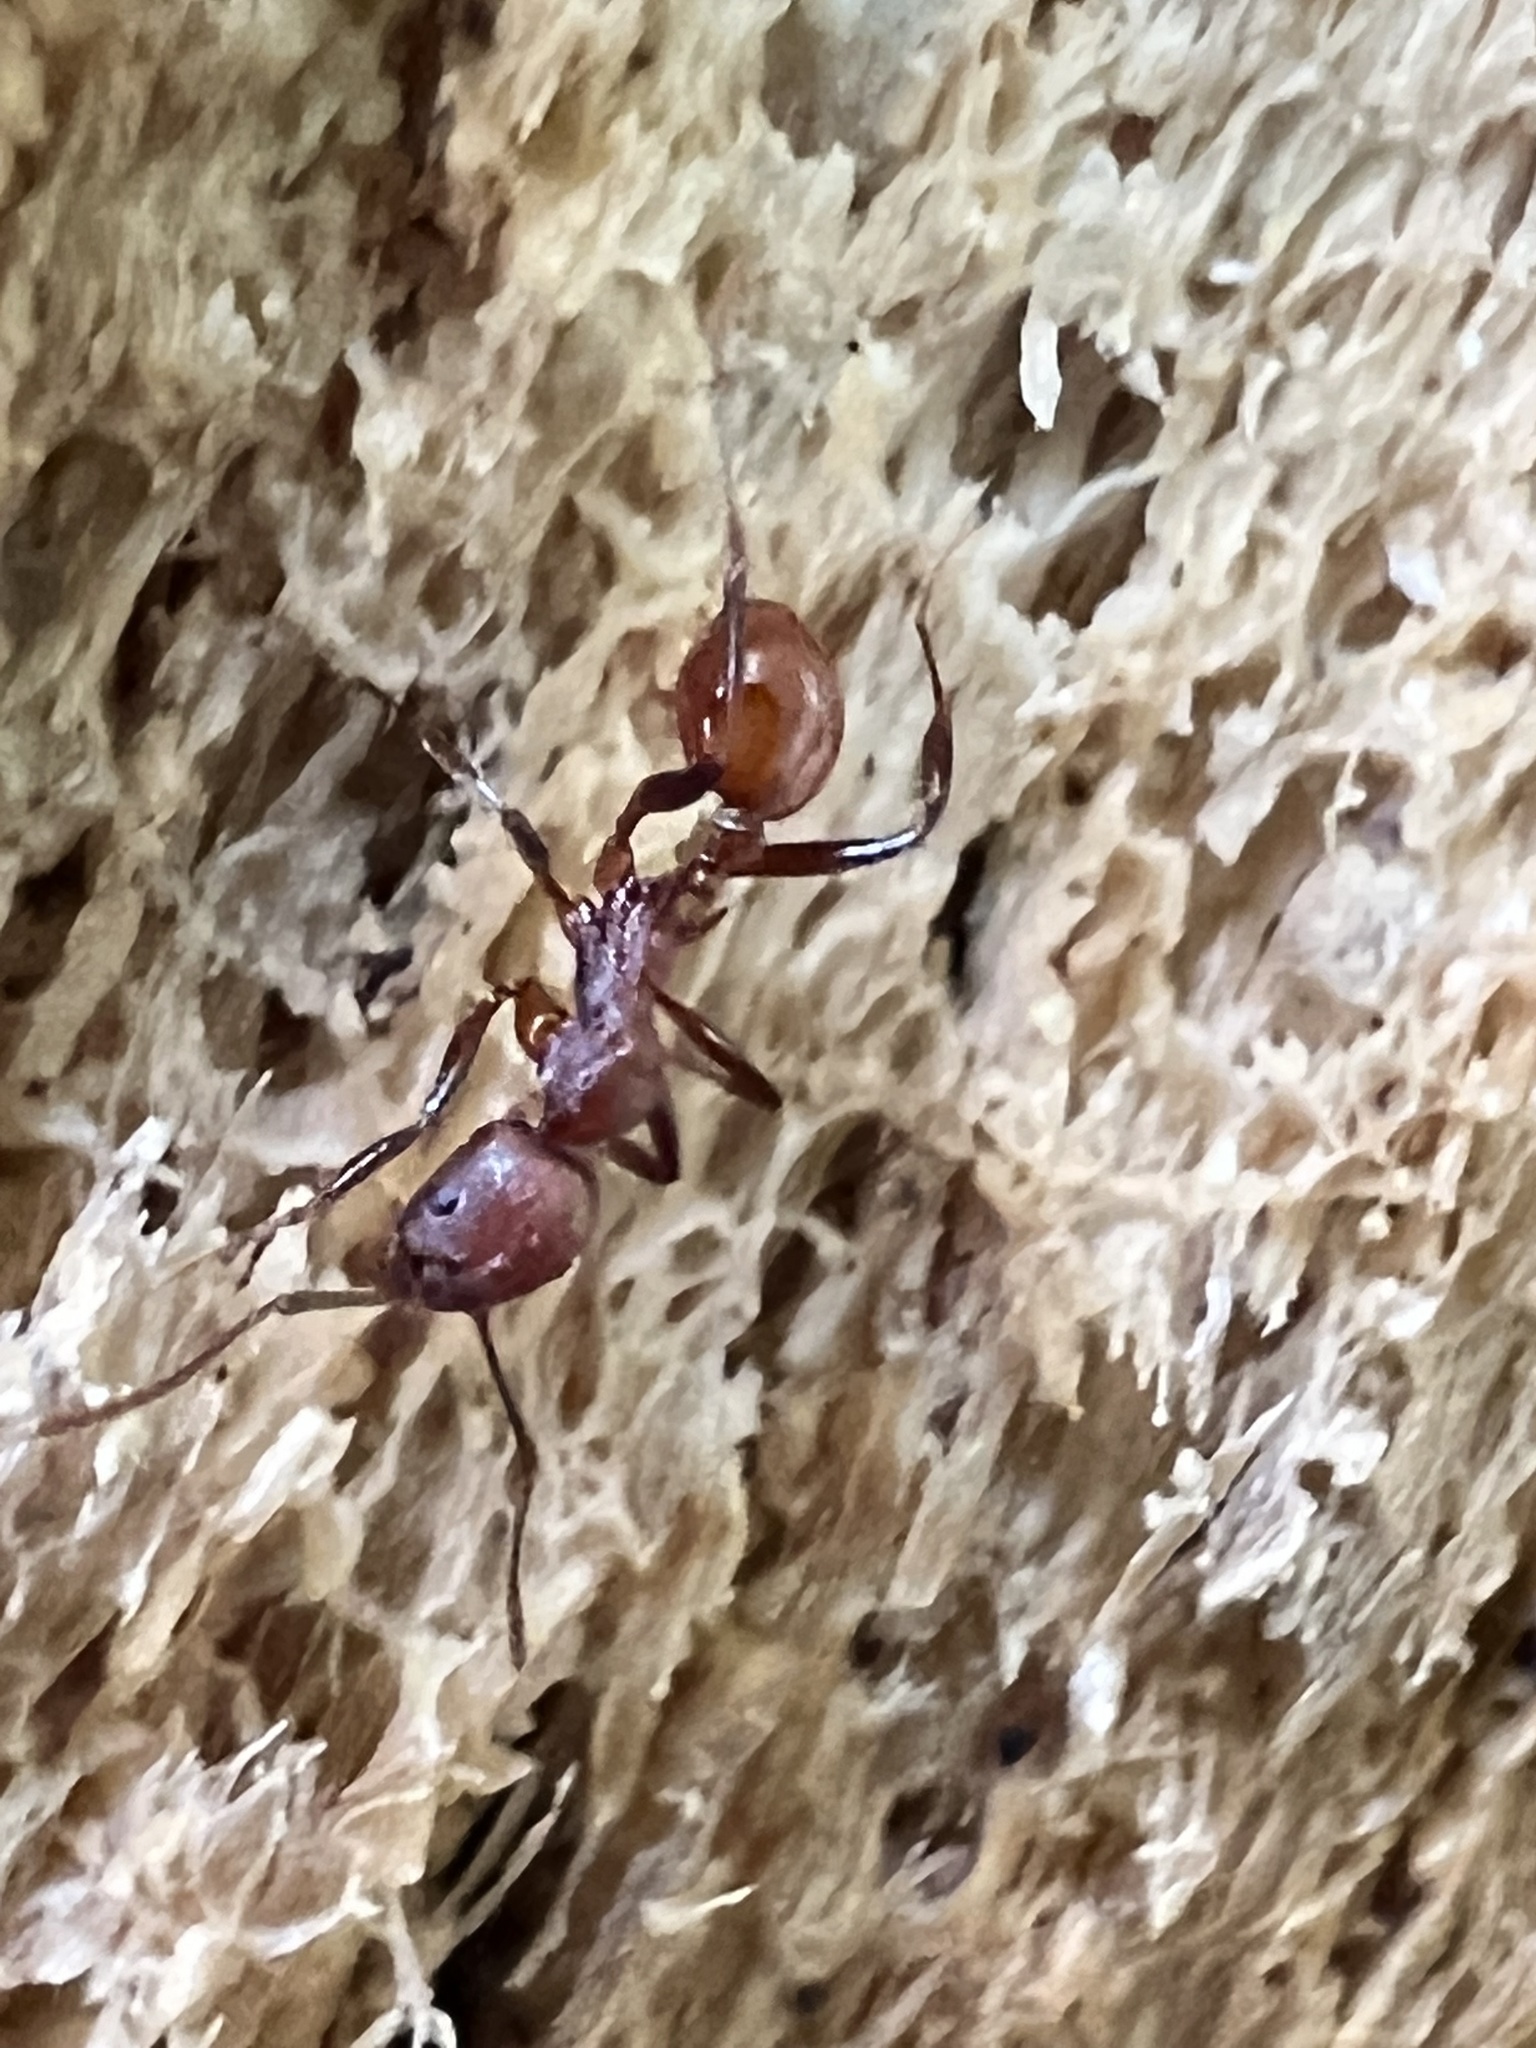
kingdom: Animalia
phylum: Arthropoda
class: Insecta
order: Hymenoptera
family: Formicidae
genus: Aphaenogaster
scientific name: Aphaenogaster tennesseensis
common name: Tennessee thread-waisted ant
